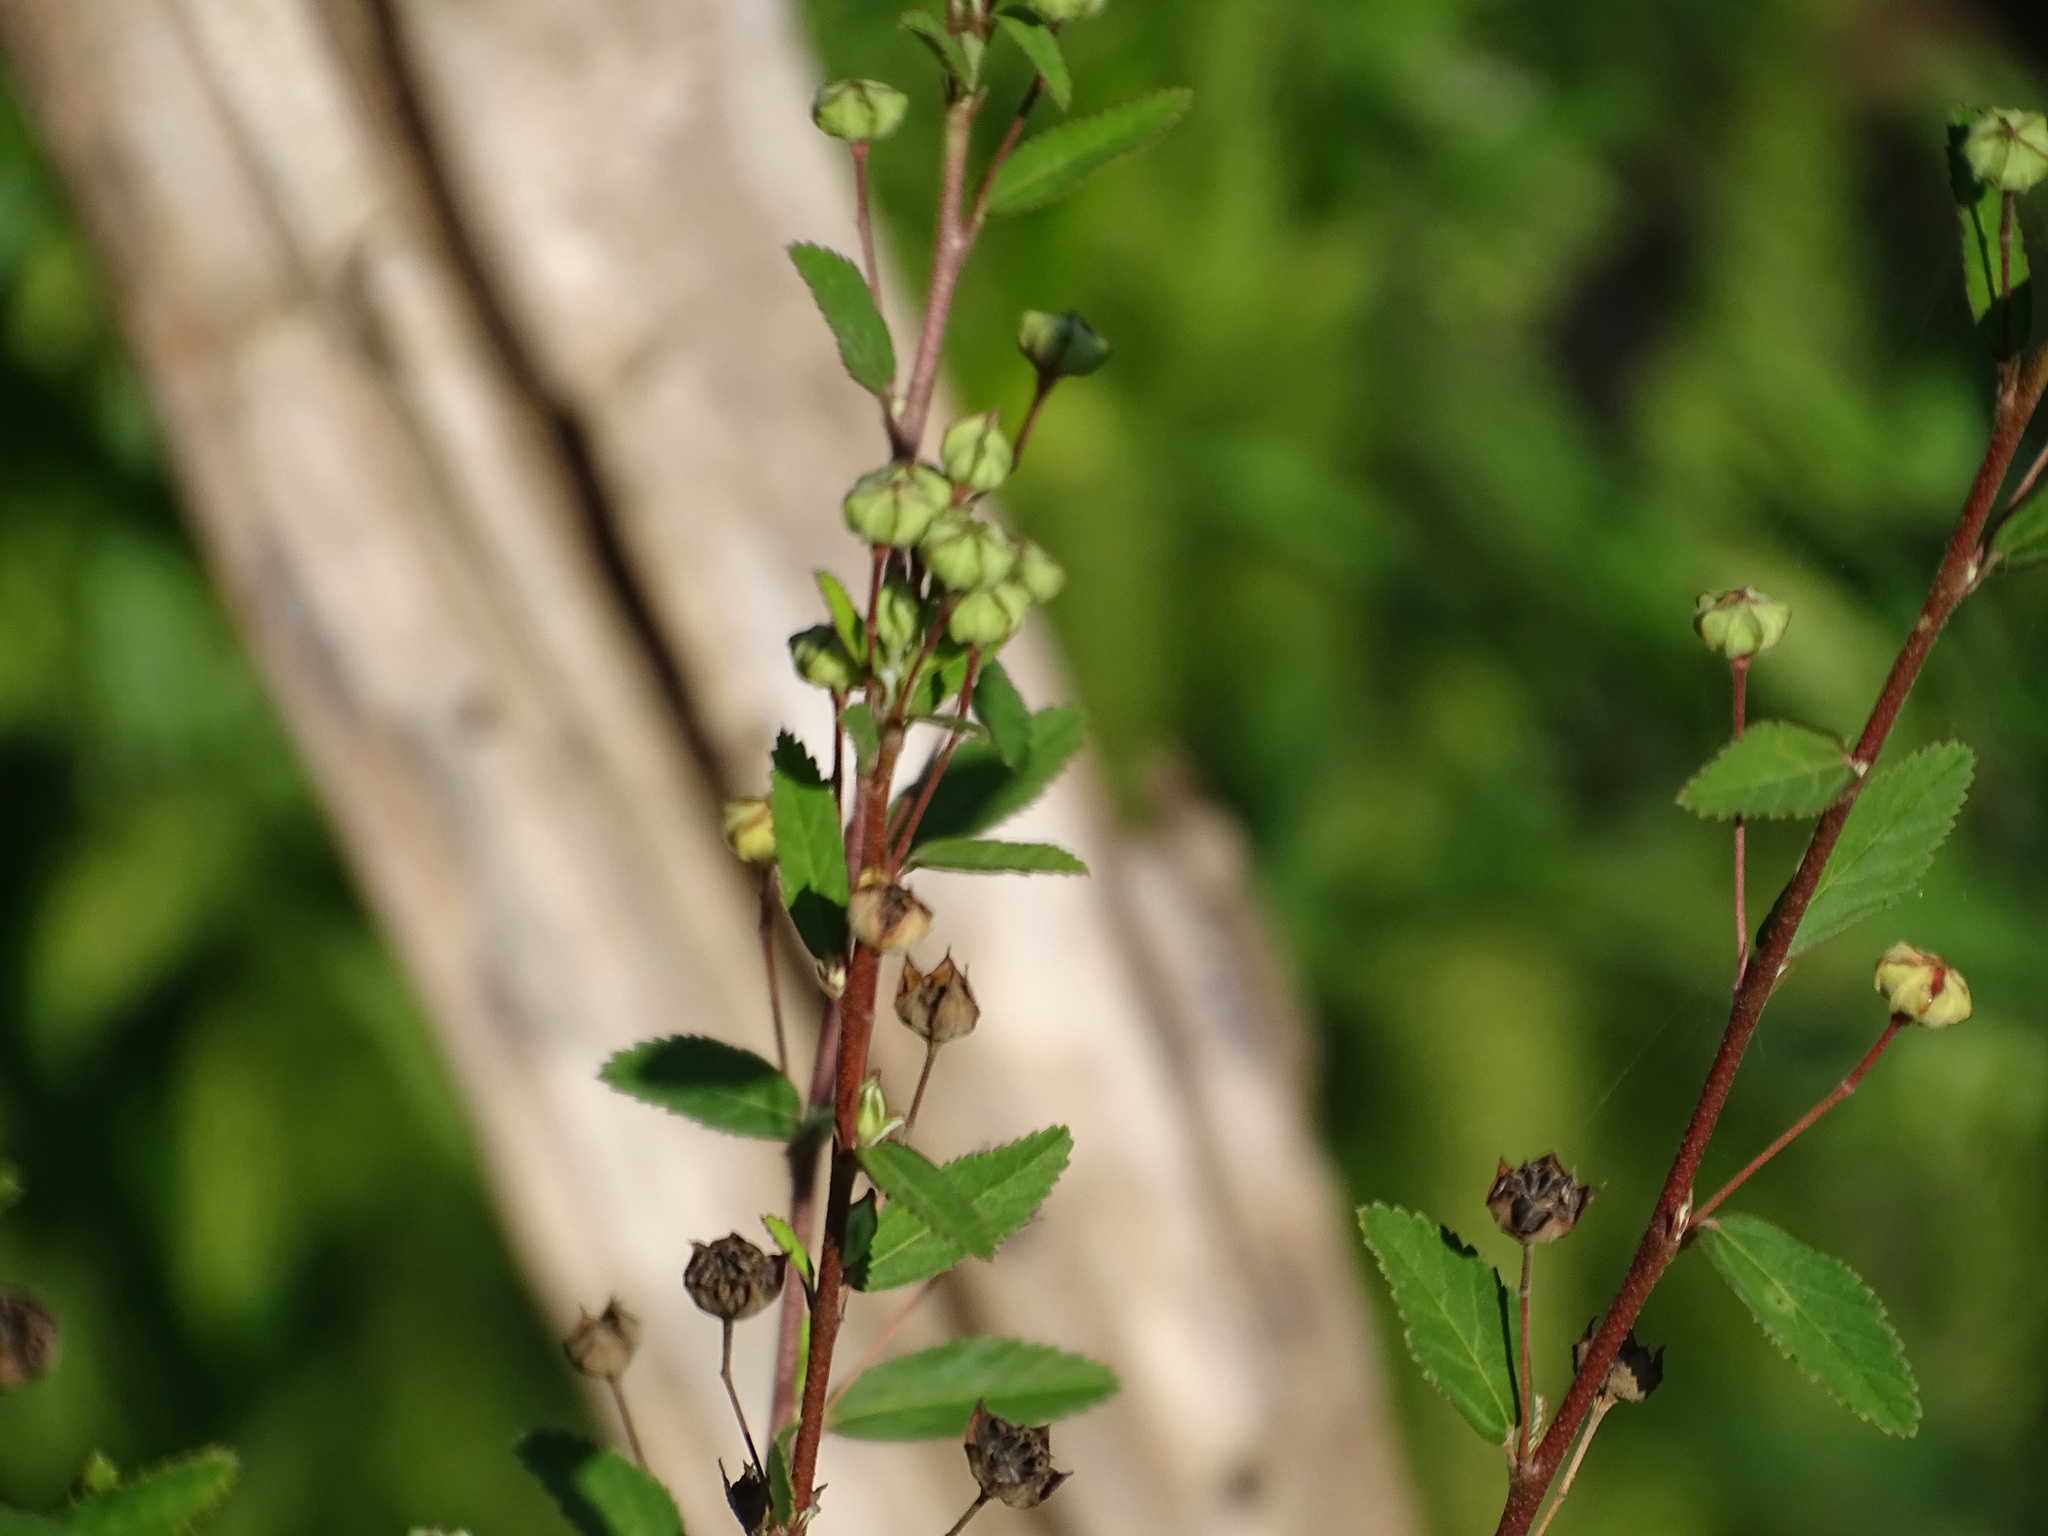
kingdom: Plantae
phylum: Tracheophyta
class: Magnoliopsida
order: Malvales
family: Malvaceae
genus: Sida
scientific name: Sida rhombifolia
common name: Queensland-hemp
